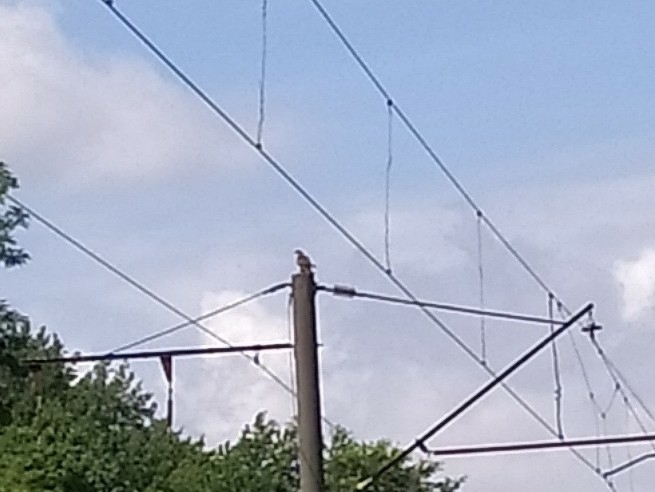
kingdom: Animalia
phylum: Chordata
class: Aves
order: Accipitriformes
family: Accipitridae
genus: Buteo
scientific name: Buteo buteo
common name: Common buzzard
